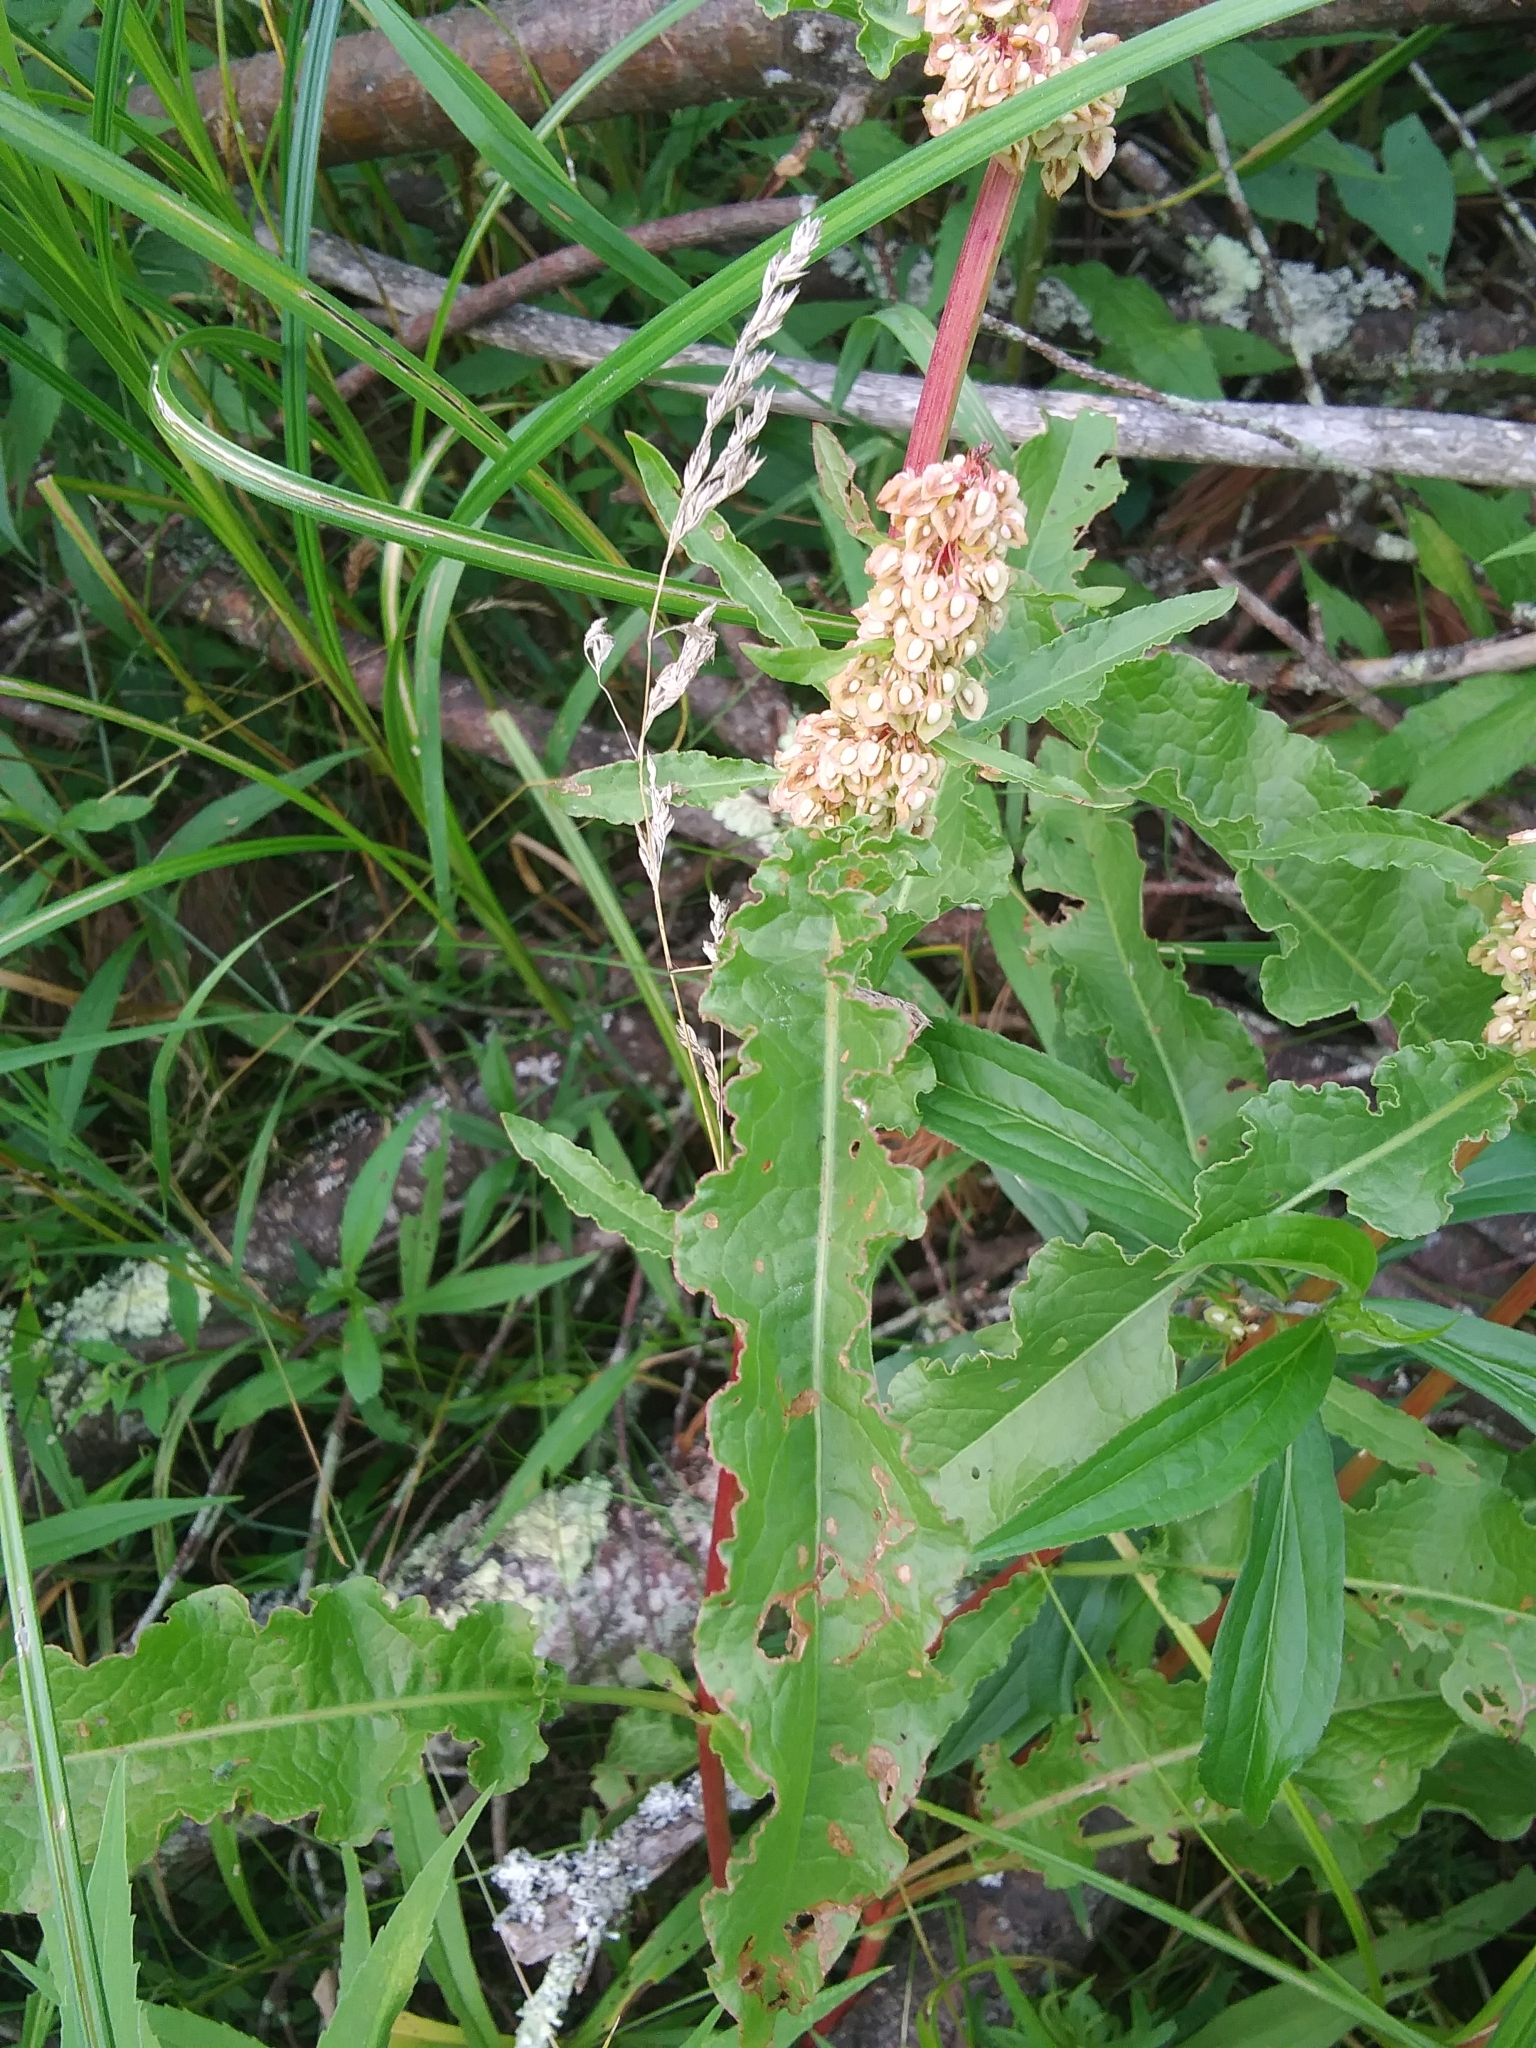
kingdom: Plantae
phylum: Tracheophyta
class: Magnoliopsida
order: Caryophyllales
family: Polygonaceae
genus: Rumex
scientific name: Rumex crispus
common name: Curled dock
